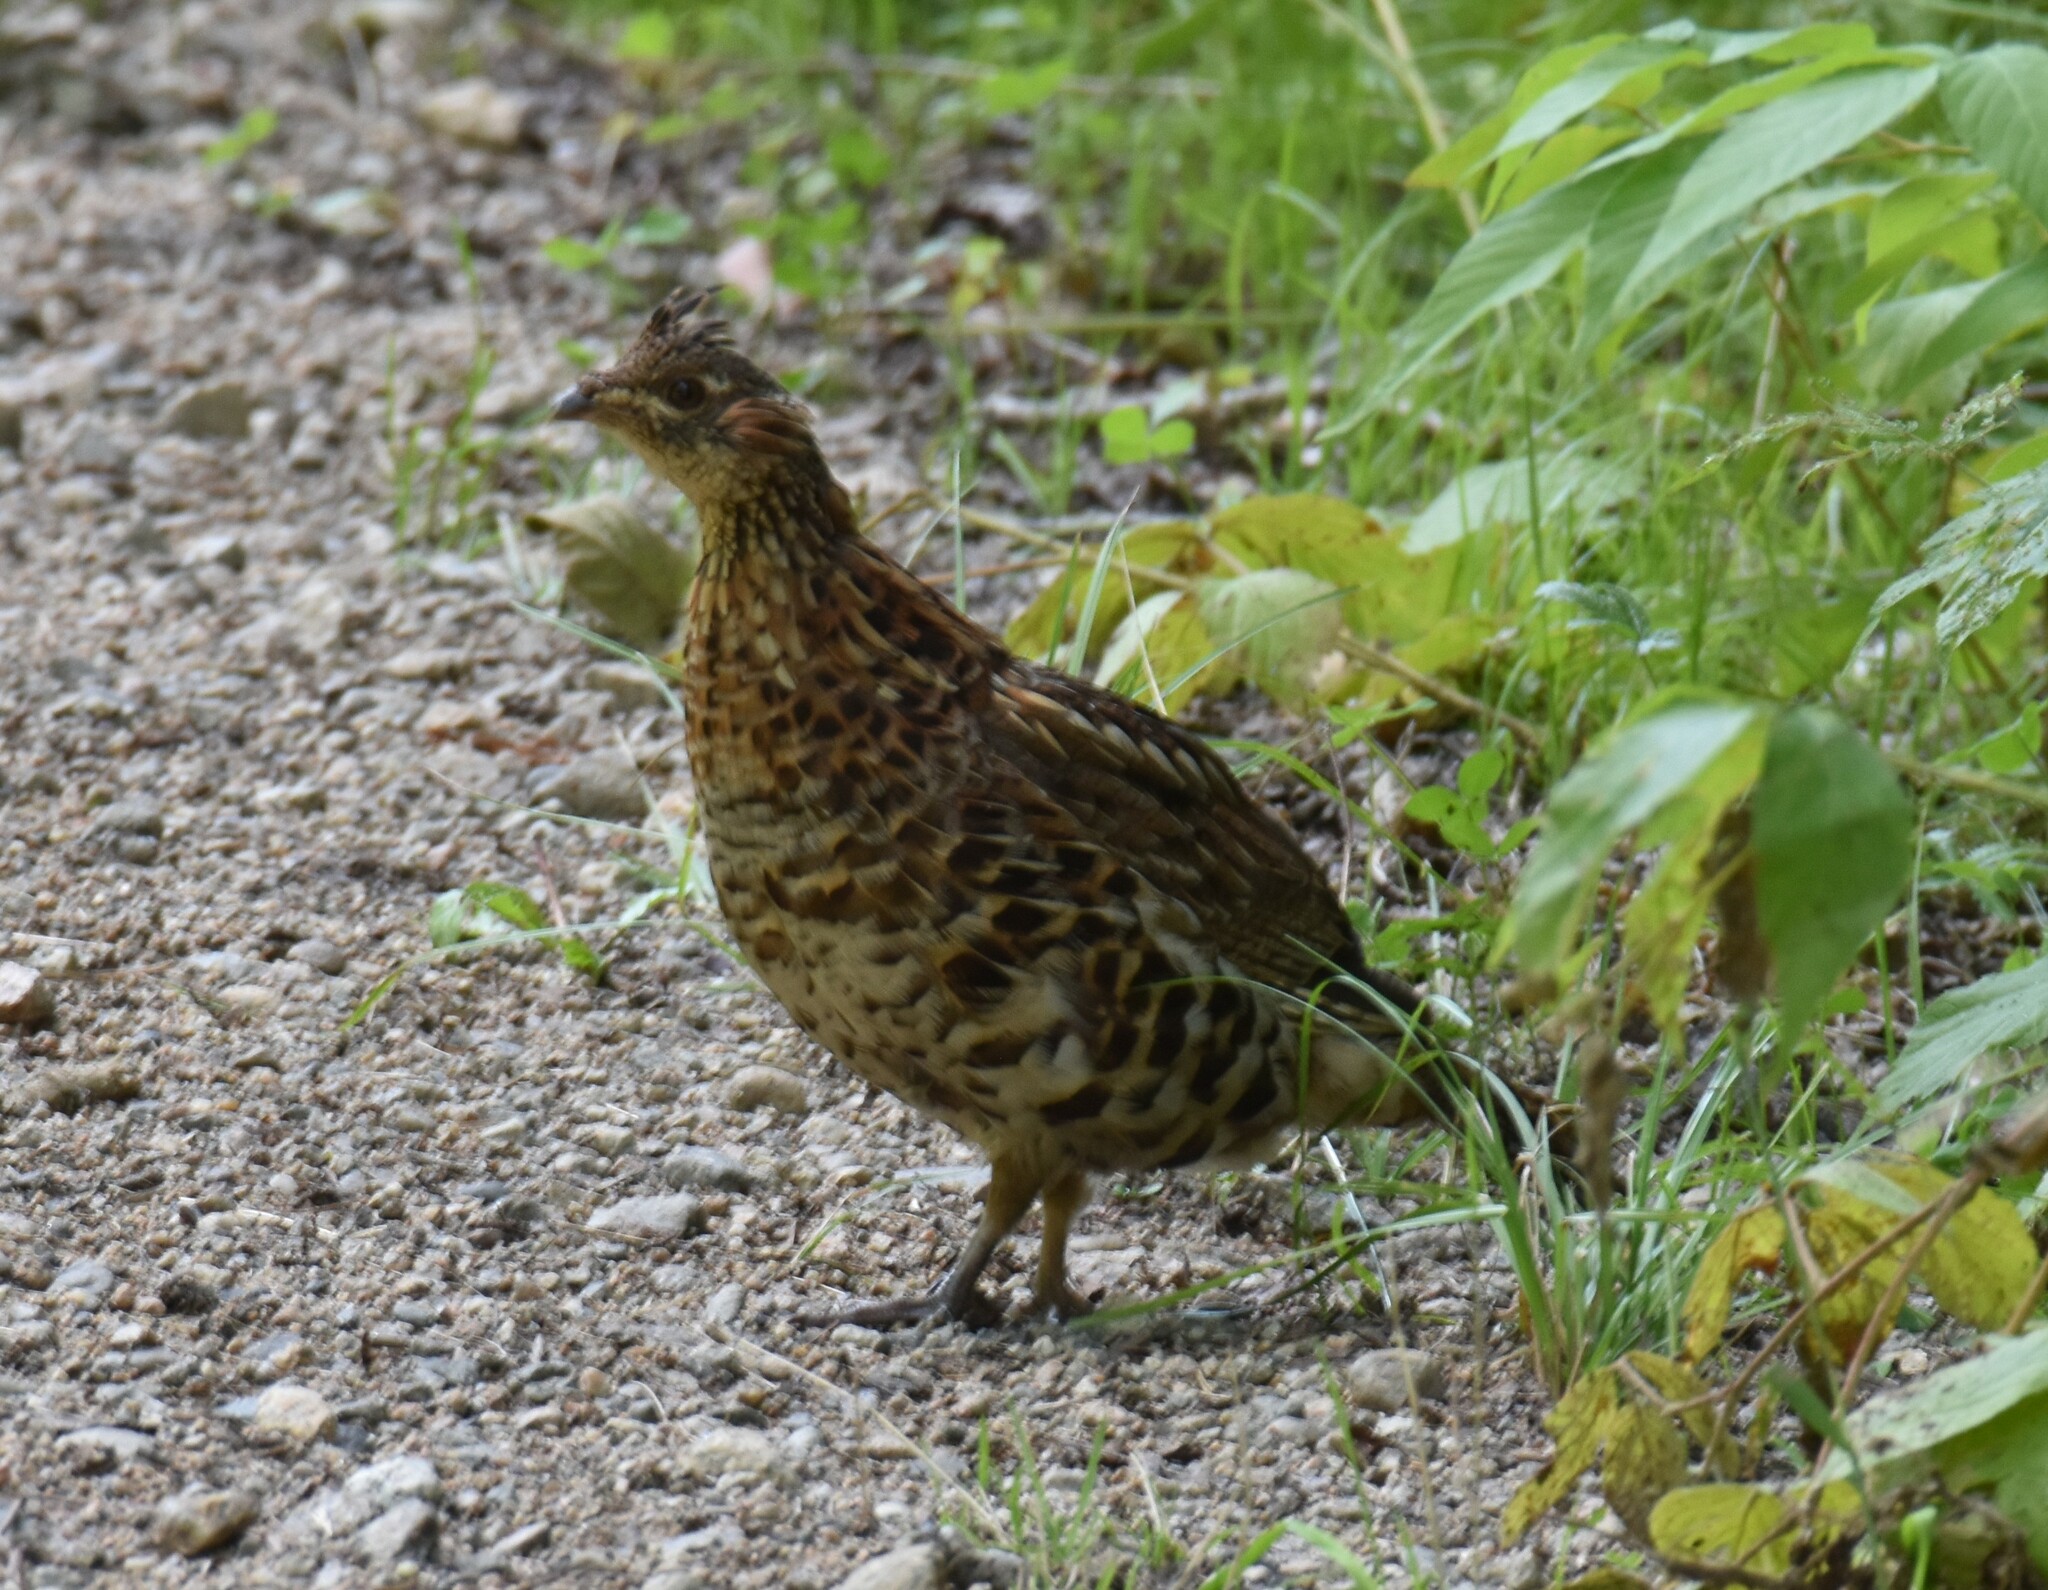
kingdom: Animalia
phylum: Chordata
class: Aves
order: Galliformes
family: Phasianidae
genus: Bonasa
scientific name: Bonasa umbellus
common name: Ruffed grouse
